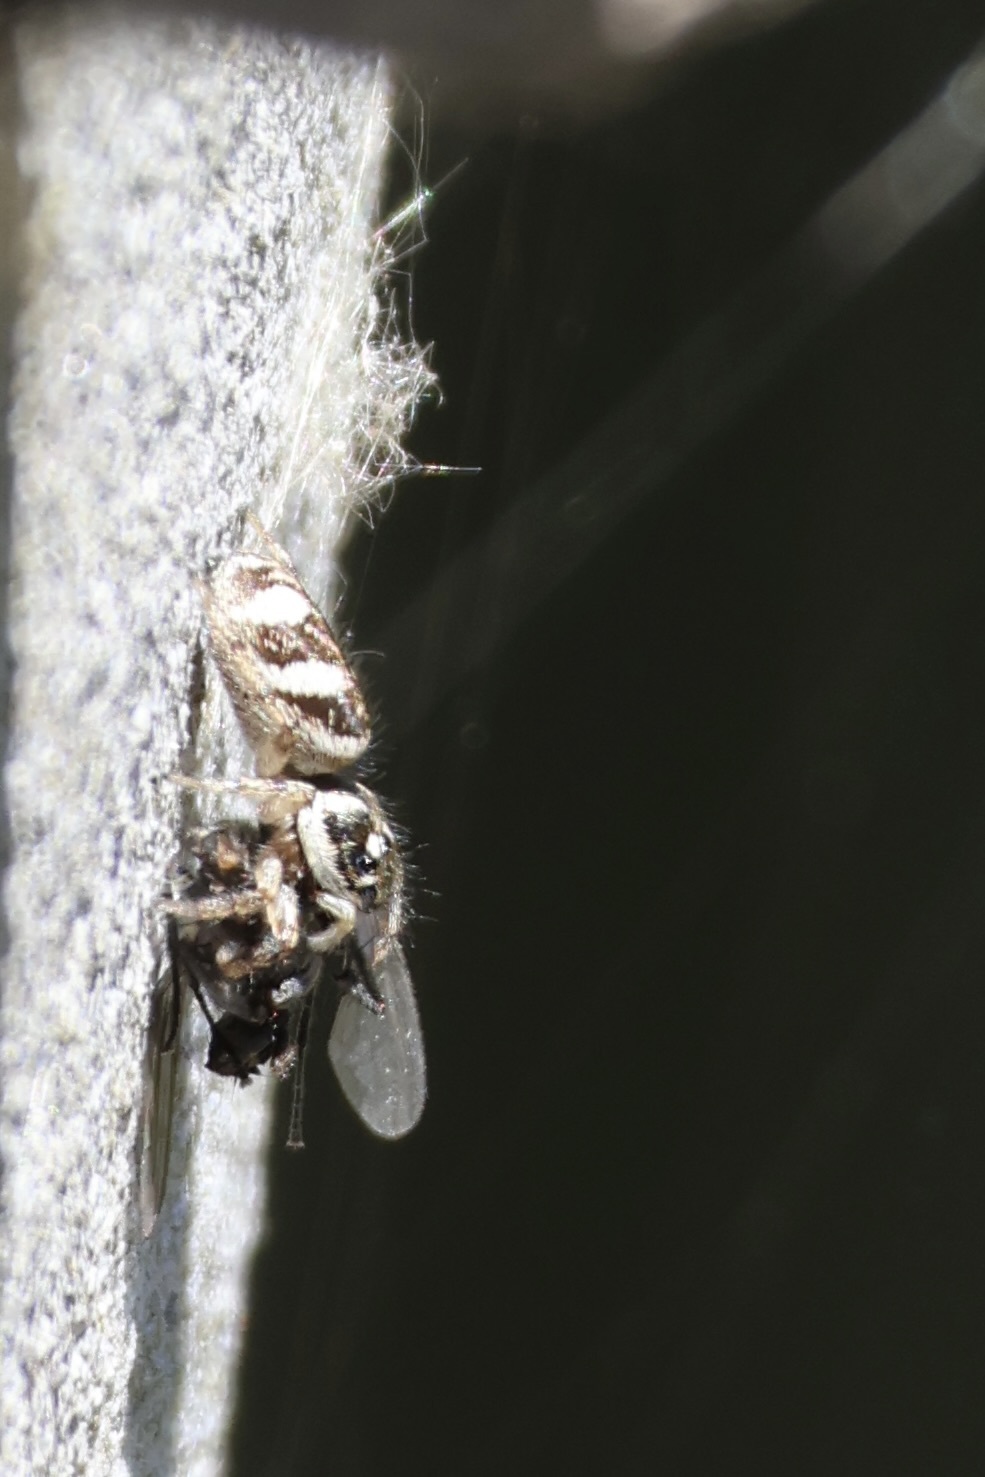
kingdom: Animalia
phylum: Arthropoda
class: Arachnida
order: Araneae
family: Salticidae
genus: Salticus
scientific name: Salticus scenicus
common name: Zebra jumper
